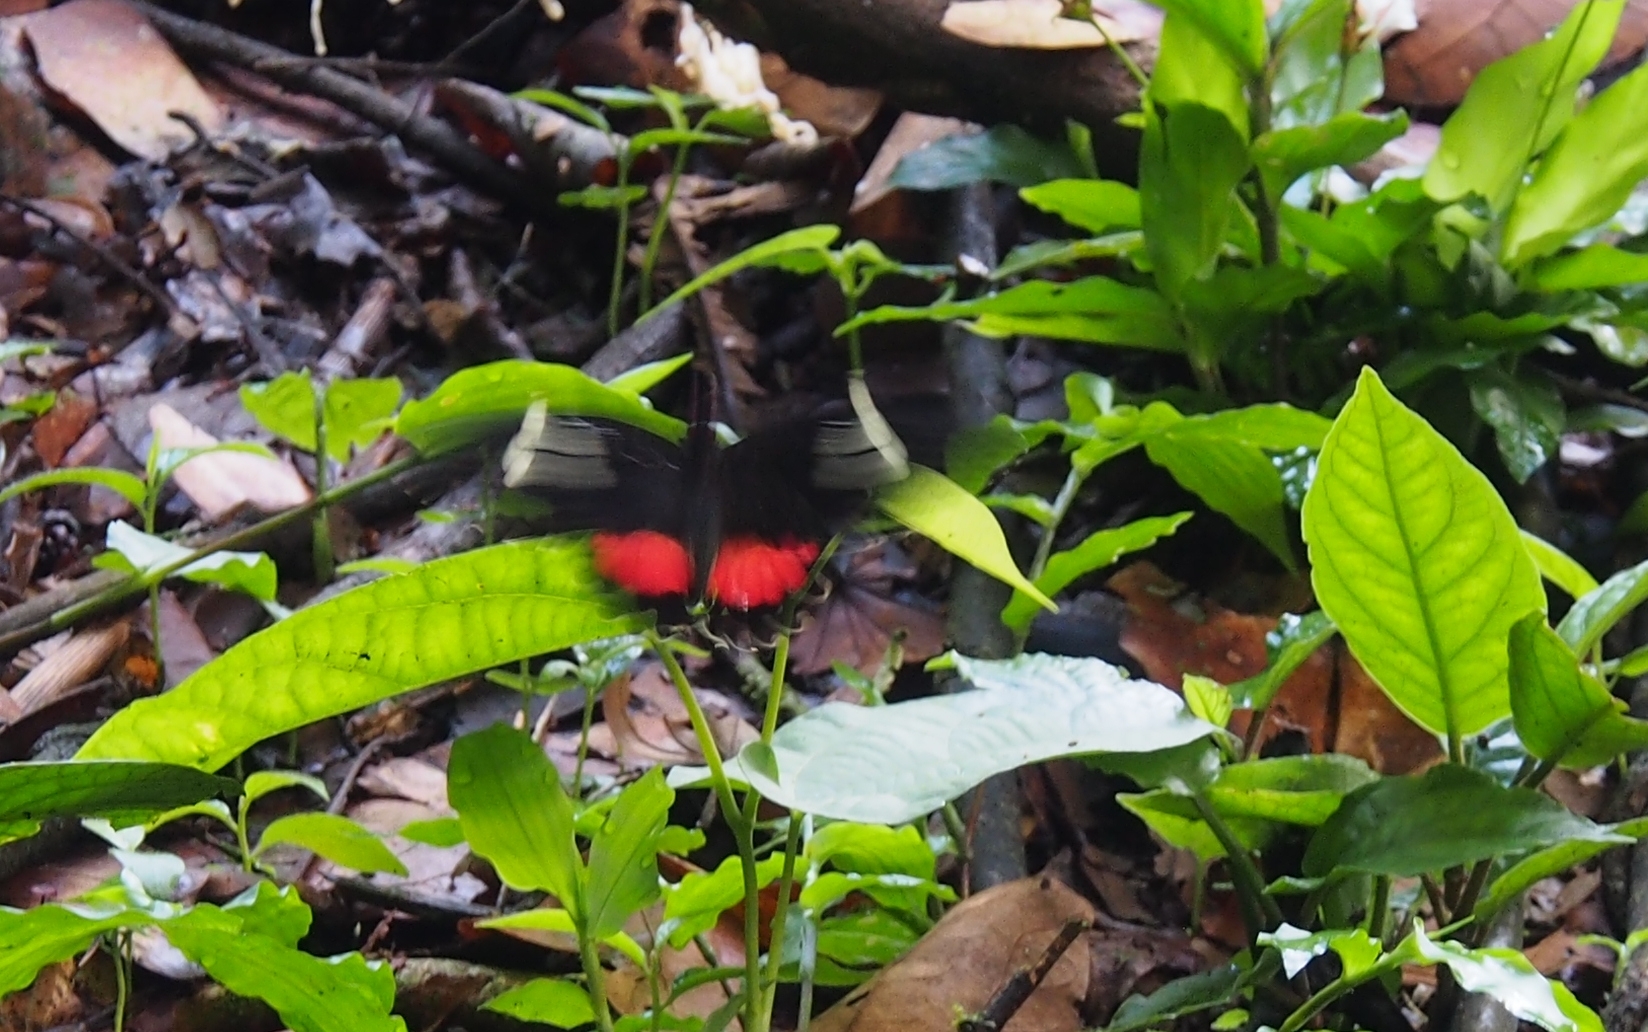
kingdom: Animalia
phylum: Arthropoda
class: Insecta
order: Lepidoptera
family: Papilionidae
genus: Parides
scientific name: Parides iphidamas
